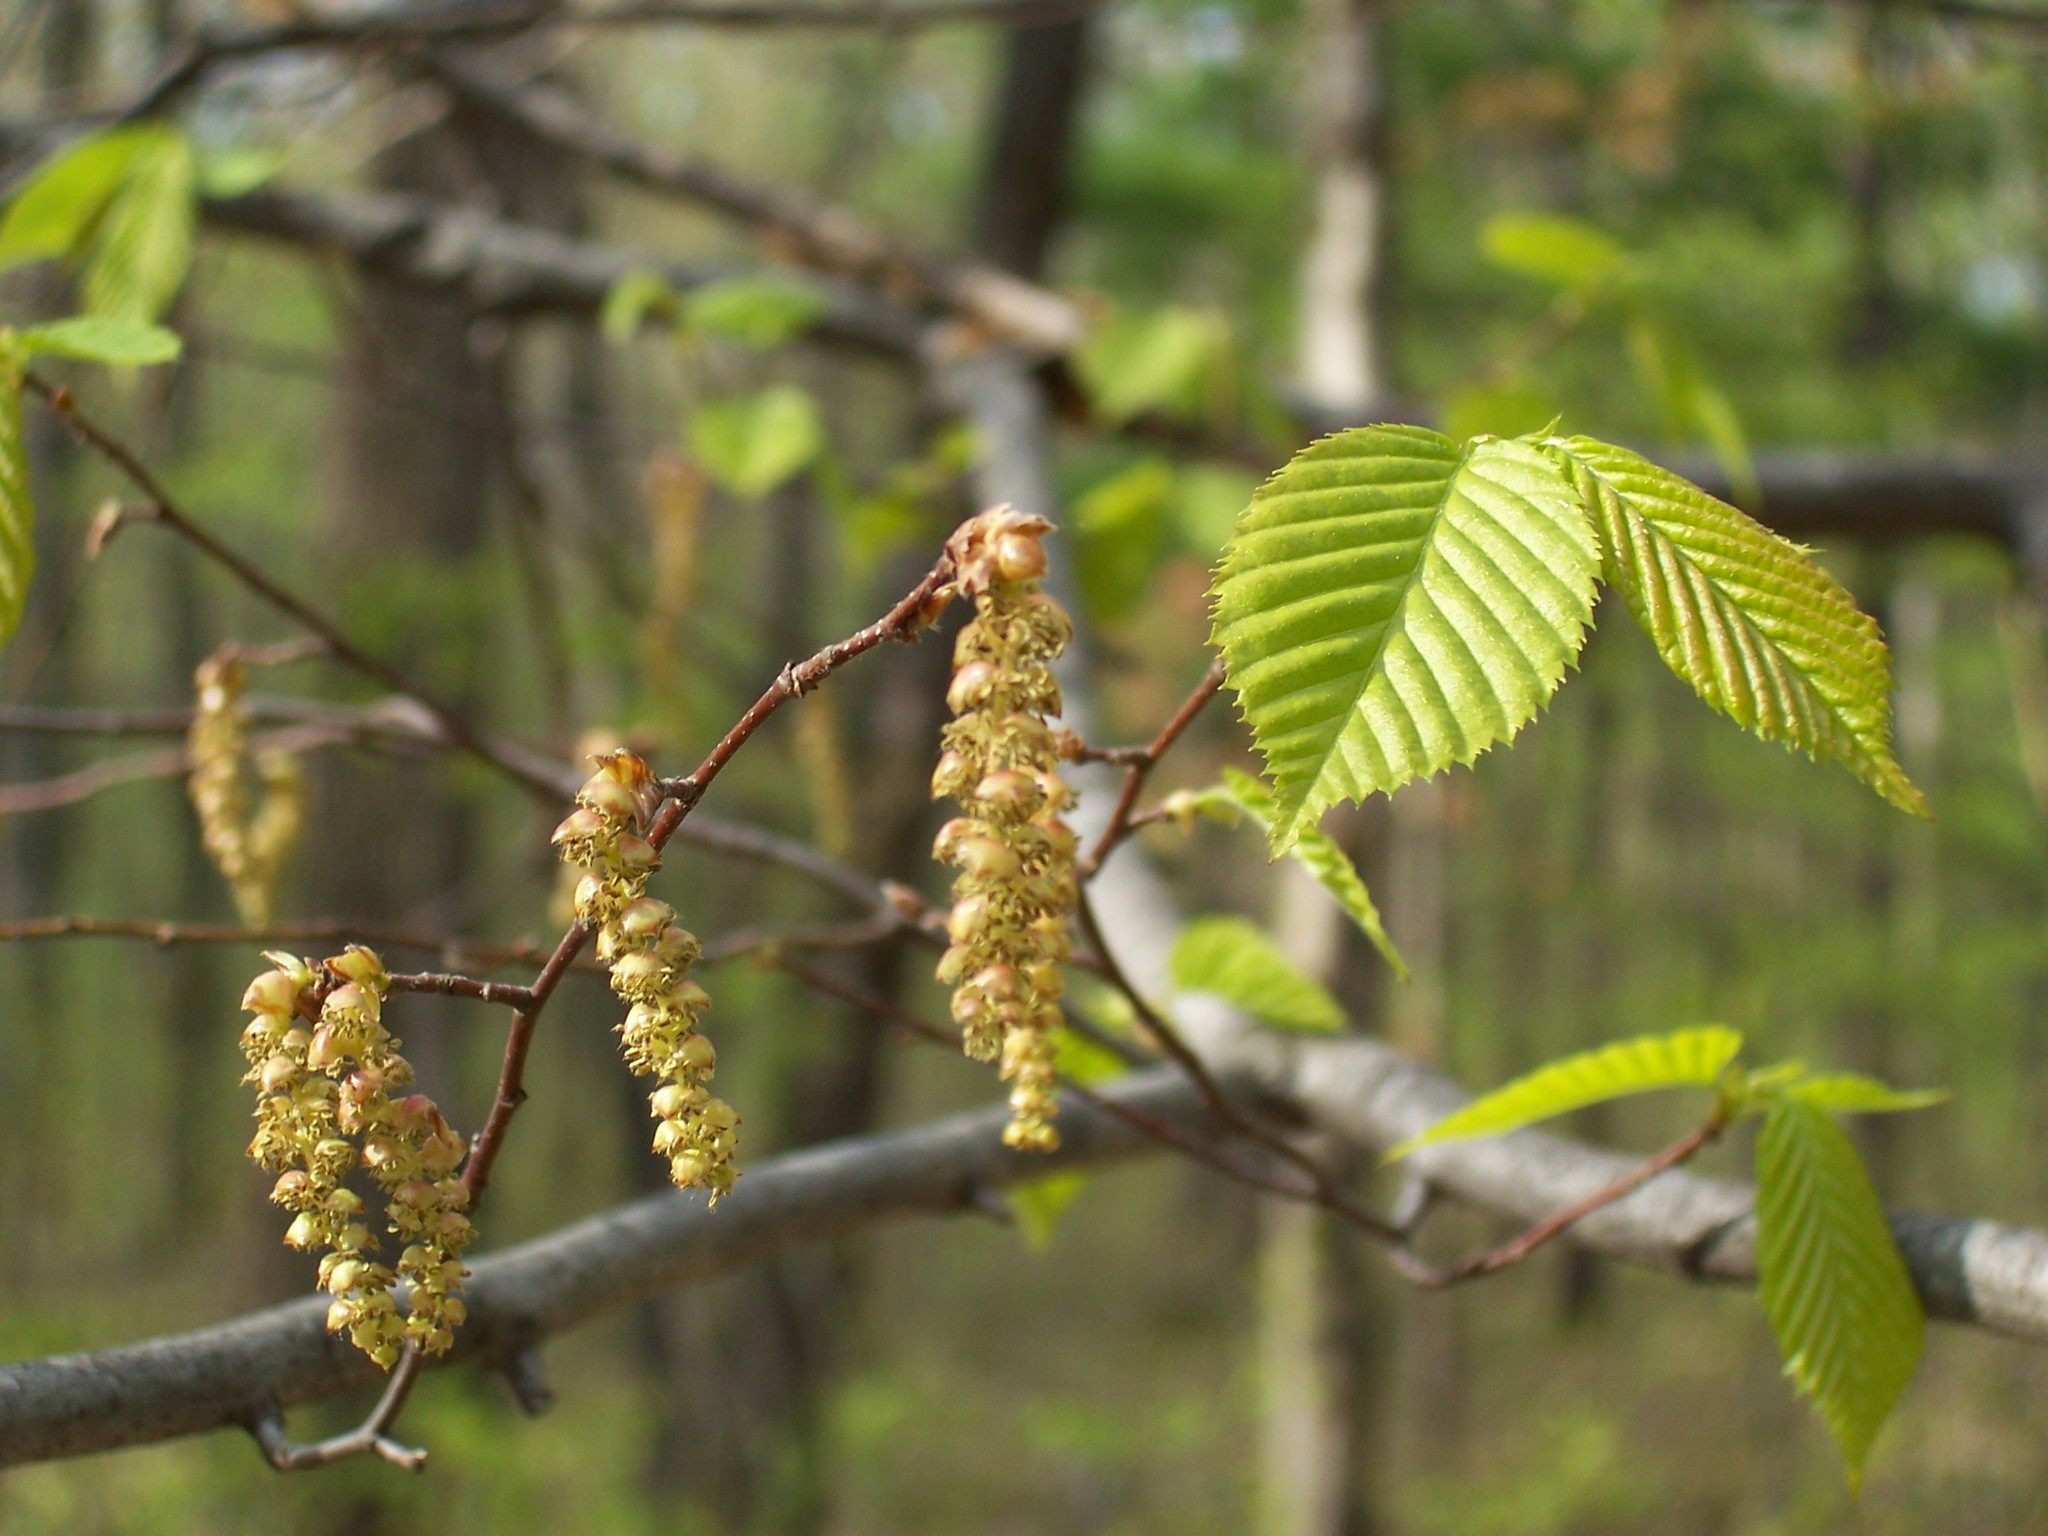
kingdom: Plantae
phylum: Tracheophyta
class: Magnoliopsida
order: Fagales
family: Betulaceae
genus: Carpinus
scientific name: Carpinus caroliniana
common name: American hornbeam
